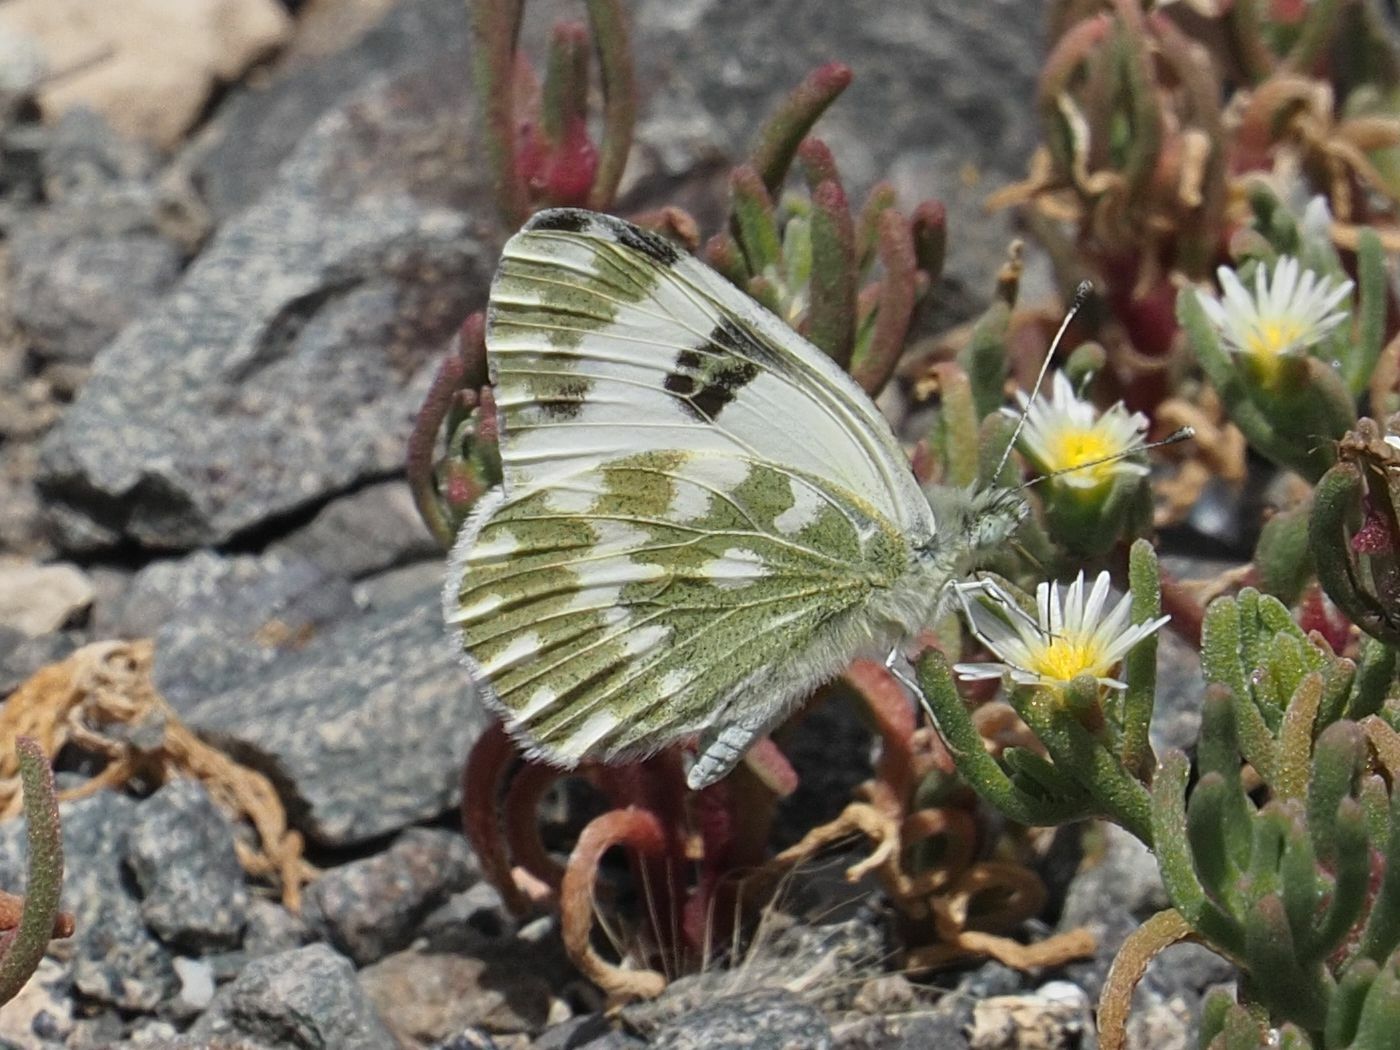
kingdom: Animalia
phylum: Arthropoda
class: Insecta
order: Lepidoptera
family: Pieridae
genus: Pontia
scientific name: Pontia daplidice
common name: Bath white
